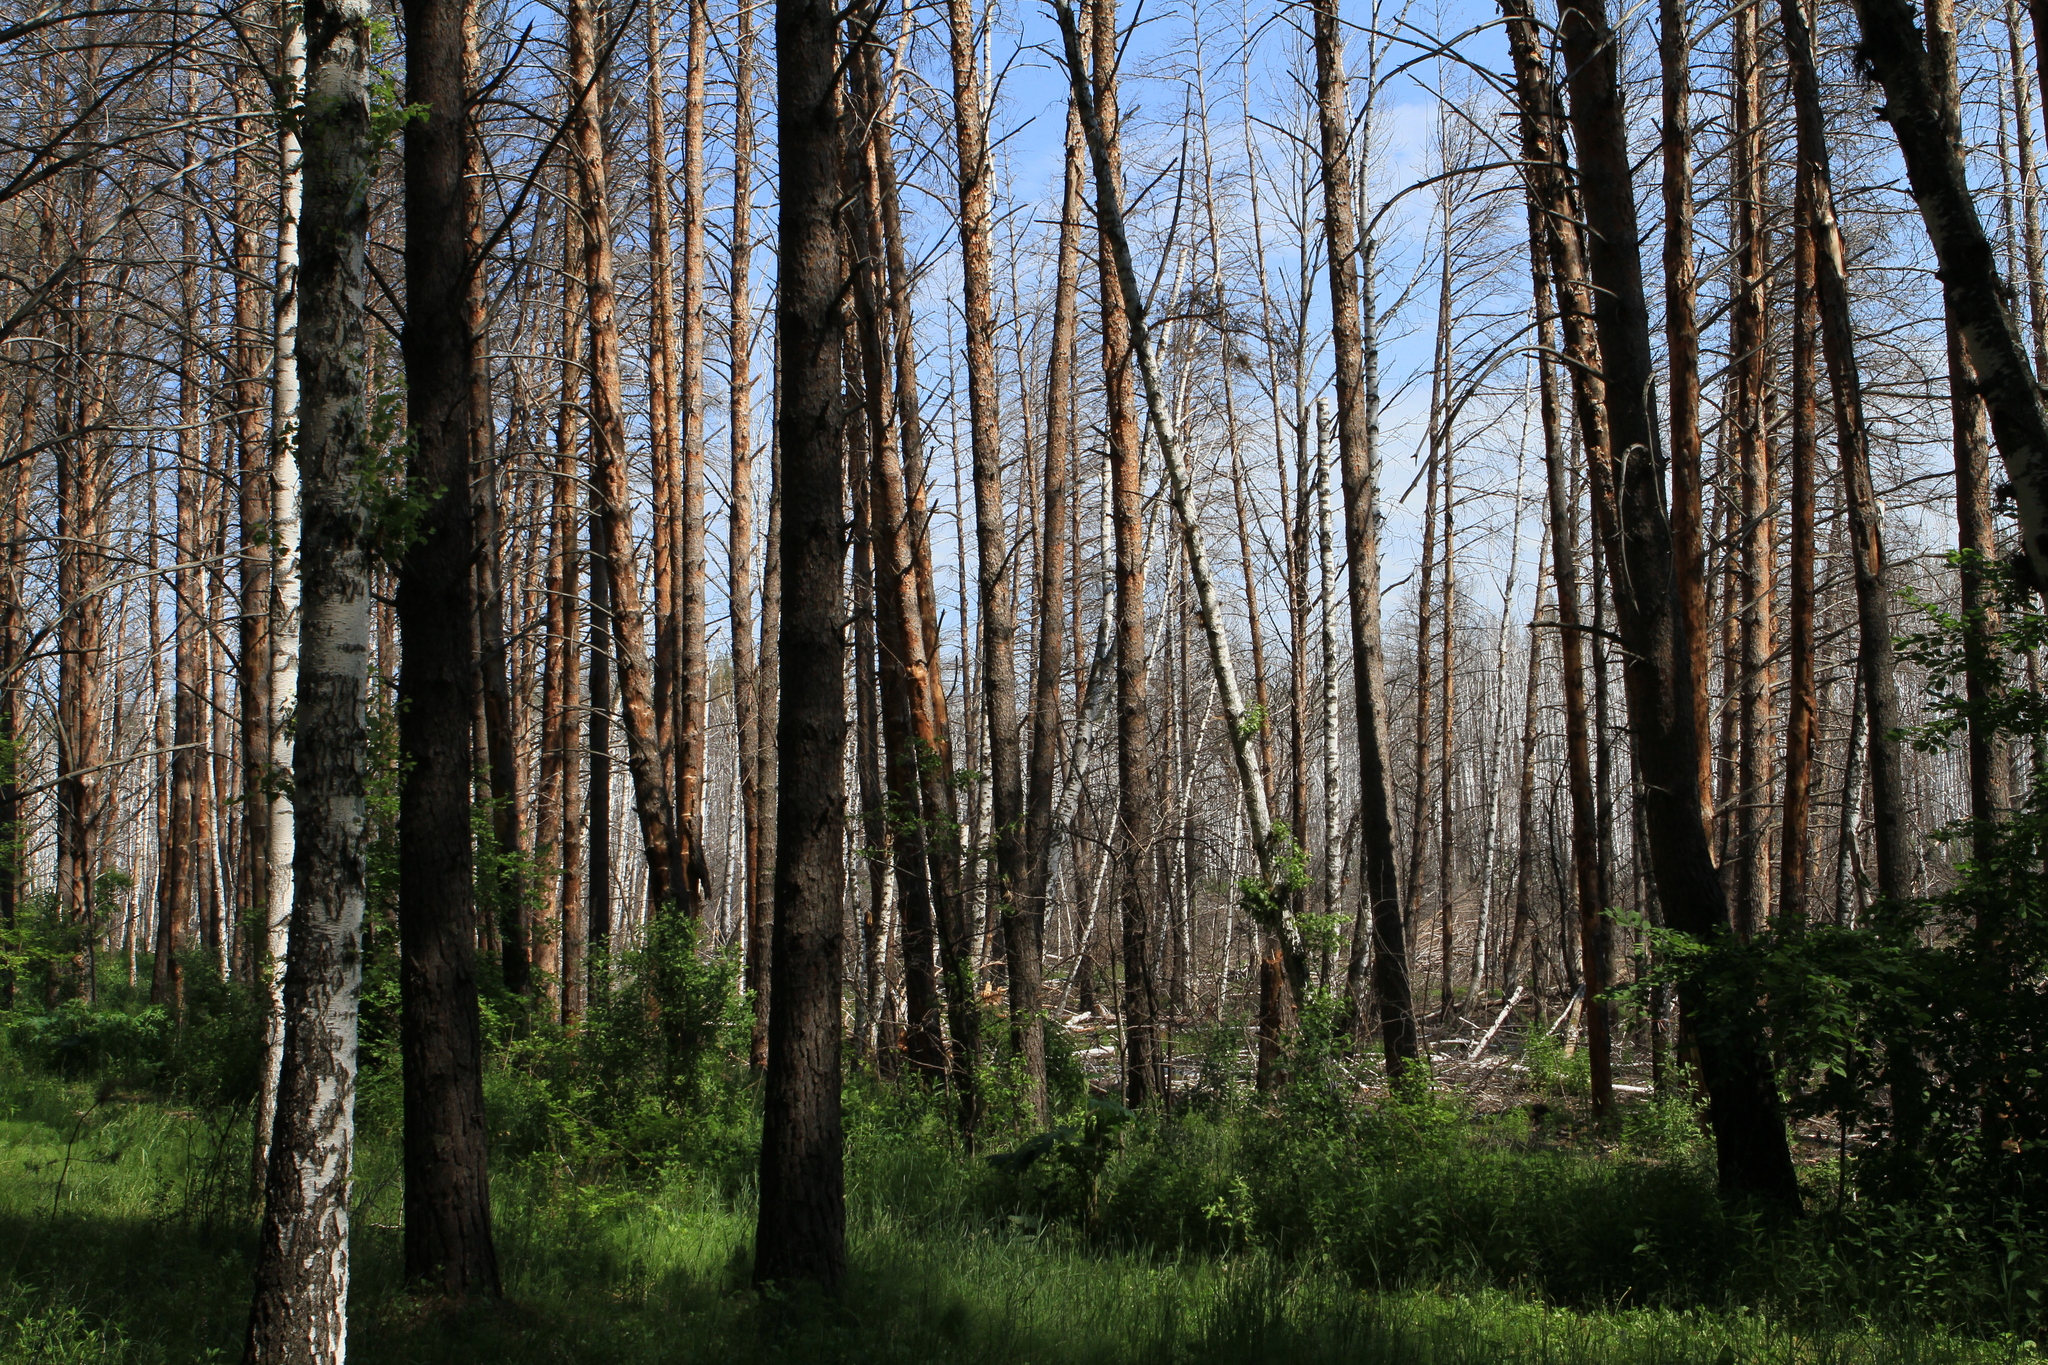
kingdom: Plantae
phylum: Tracheophyta
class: Pinopsida
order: Pinales
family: Pinaceae
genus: Pinus
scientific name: Pinus sylvestris
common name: Scots pine
